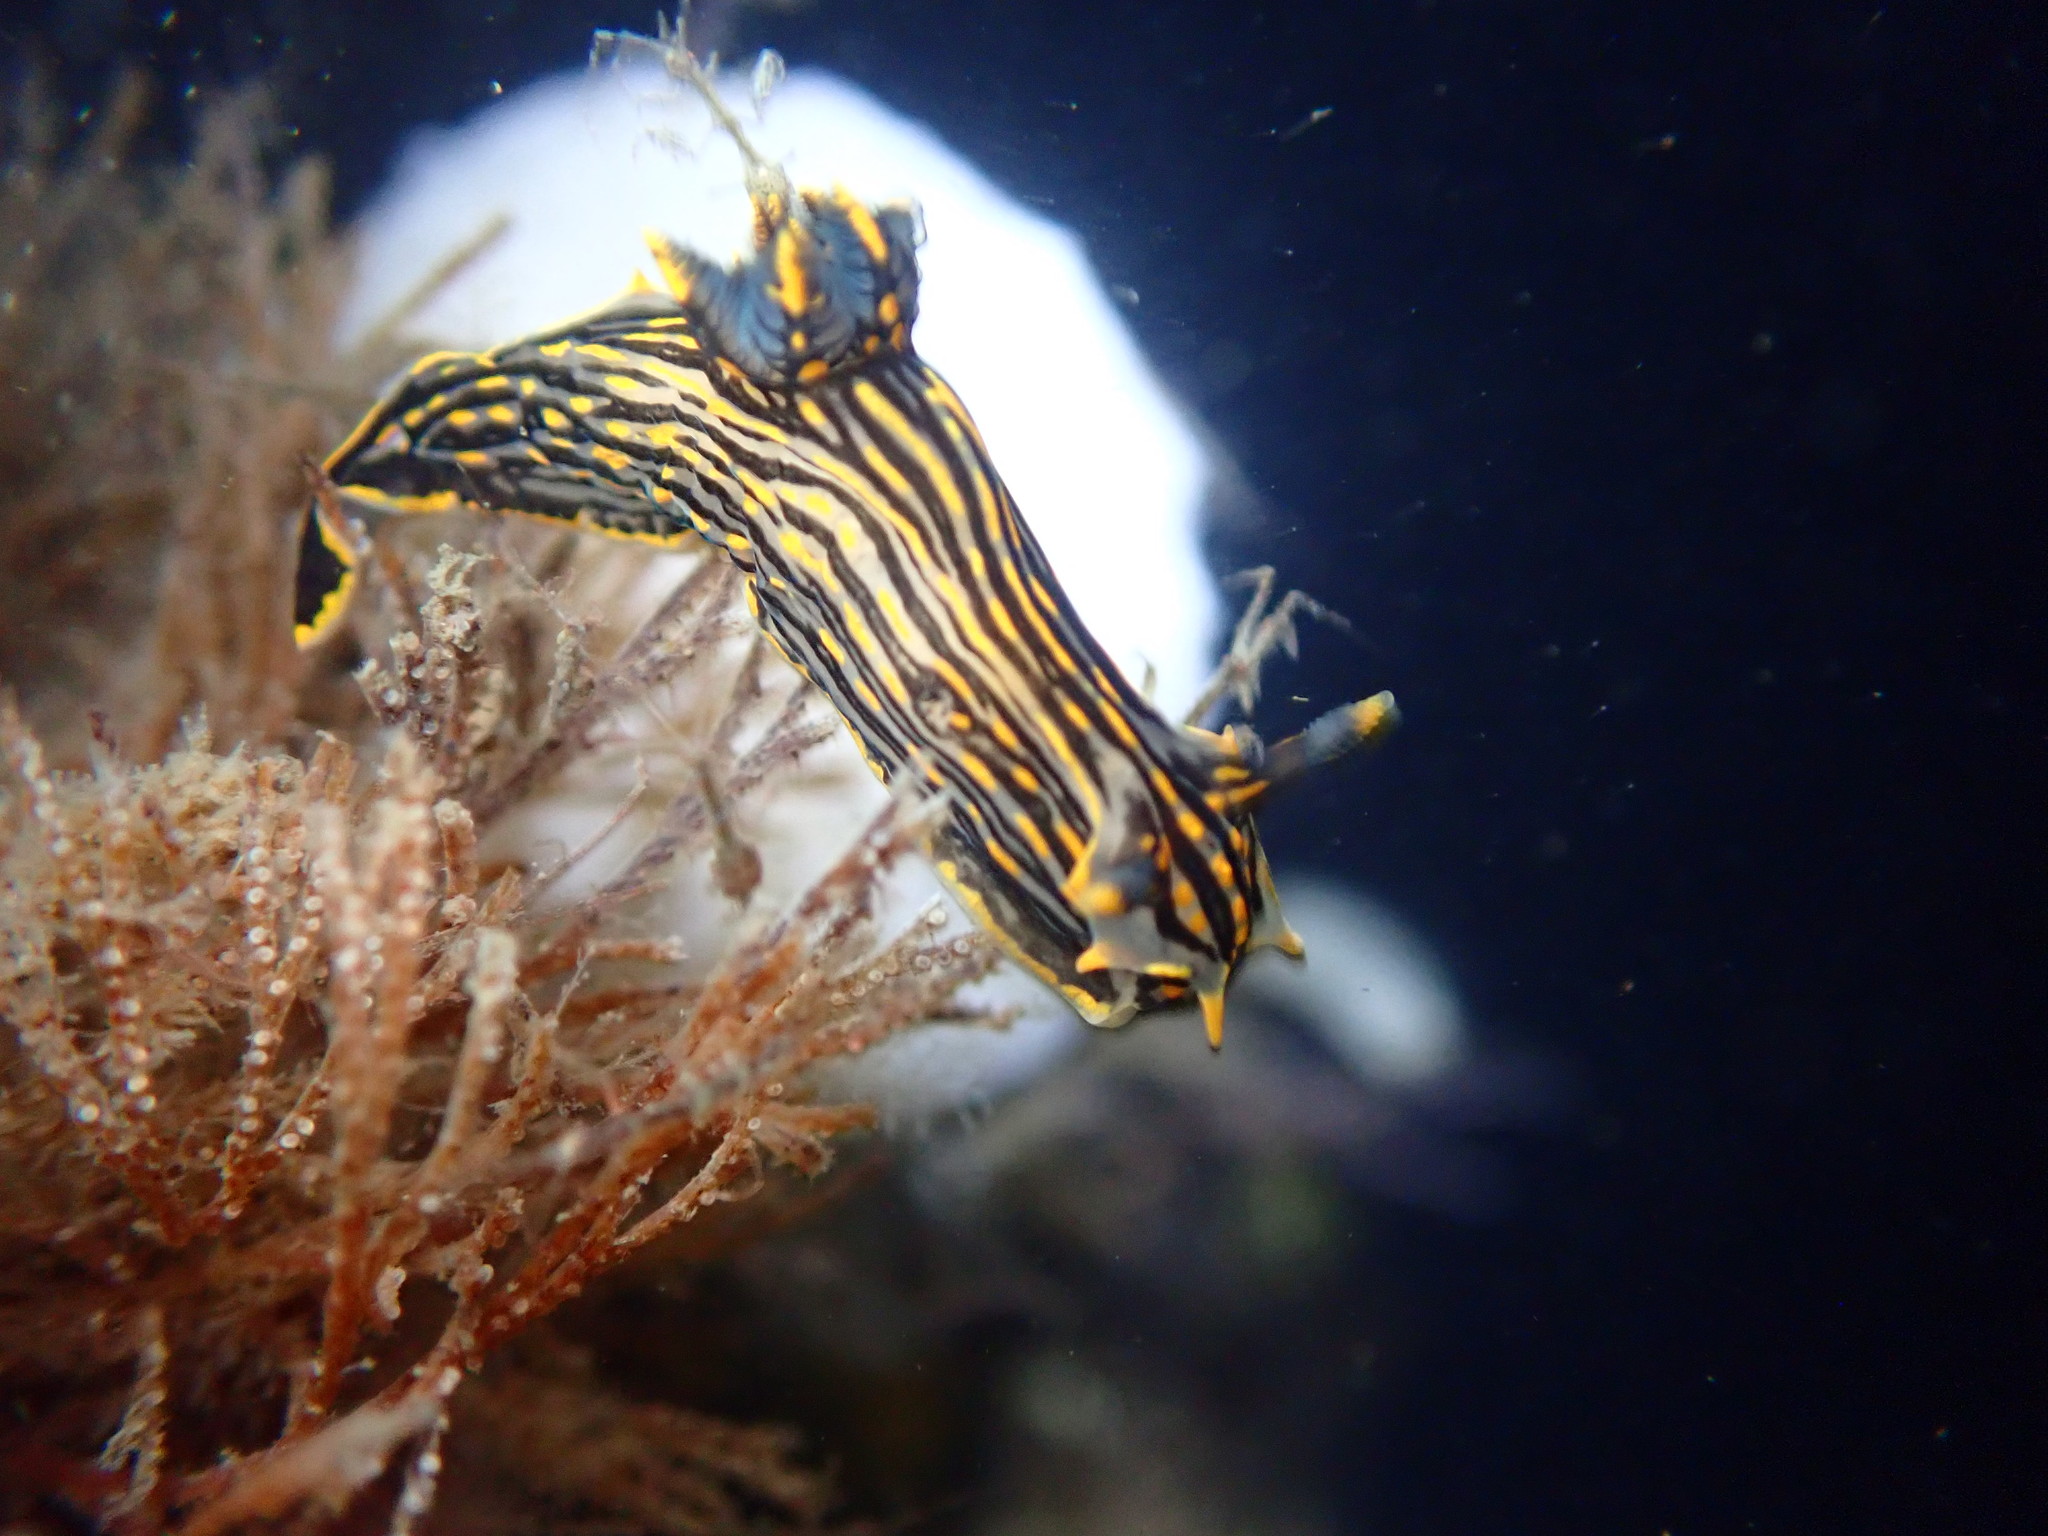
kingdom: Animalia
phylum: Mollusca
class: Gastropoda
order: Nudibranchia
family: Polyceridae
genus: Polycera
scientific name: Polycera atra
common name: Orange-spike polycera
